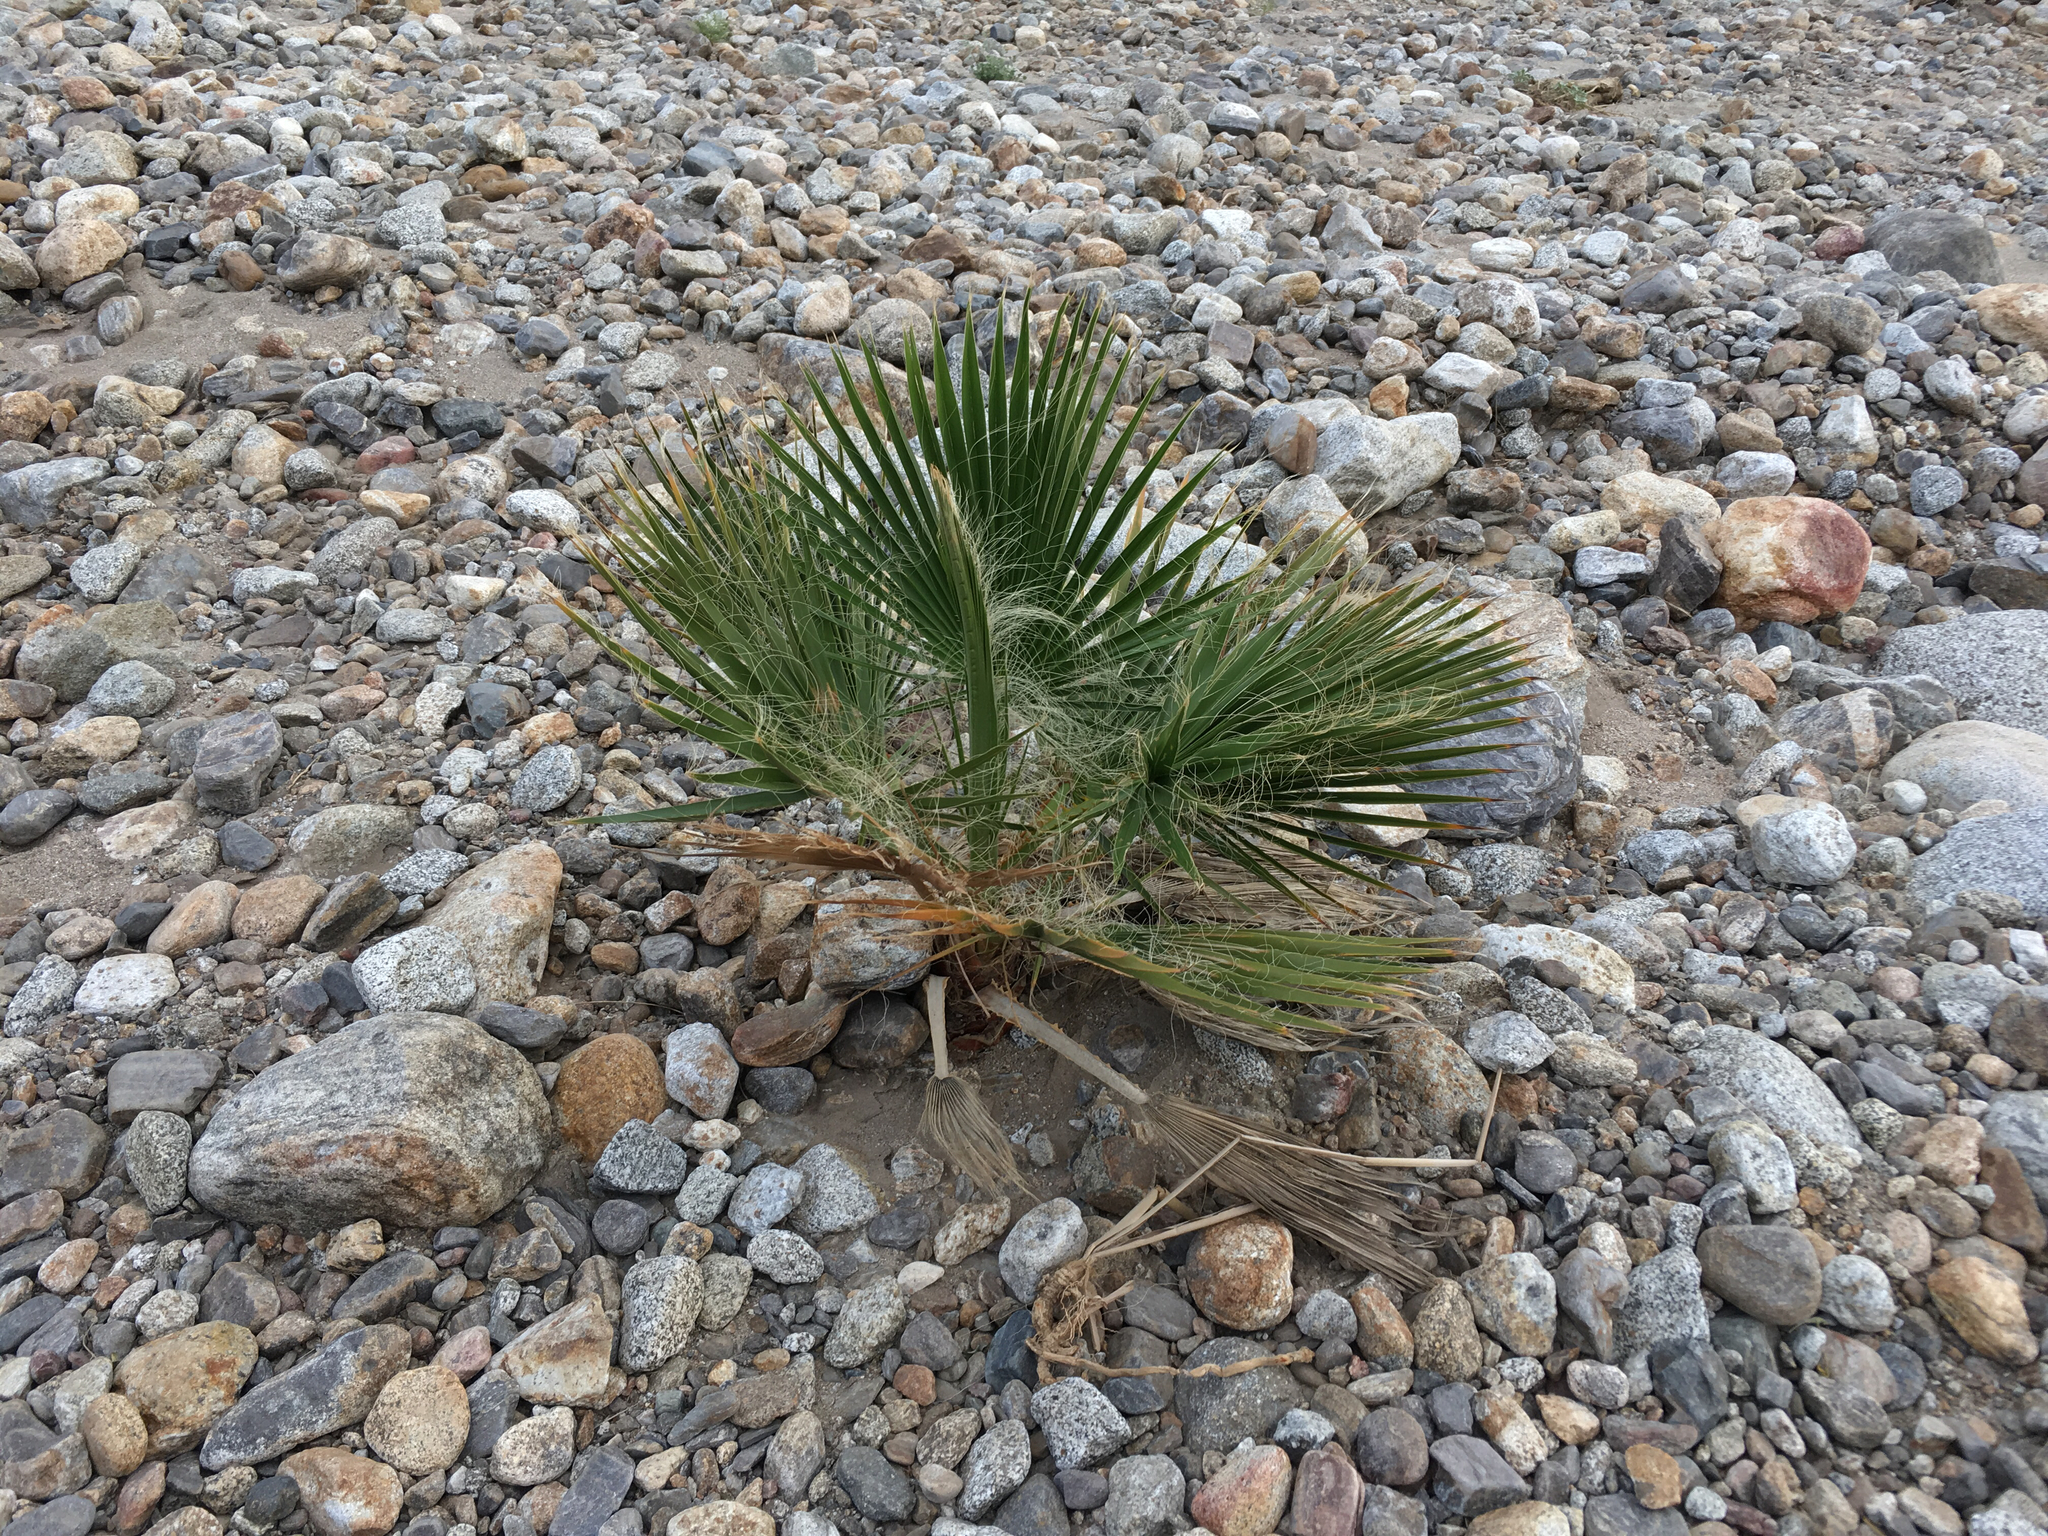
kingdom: Plantae
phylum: Tracheophyta
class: Liliopsida
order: Arecales
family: Arecaceae
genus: Washingtonia
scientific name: Washingtonia filifera
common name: California fan palm
